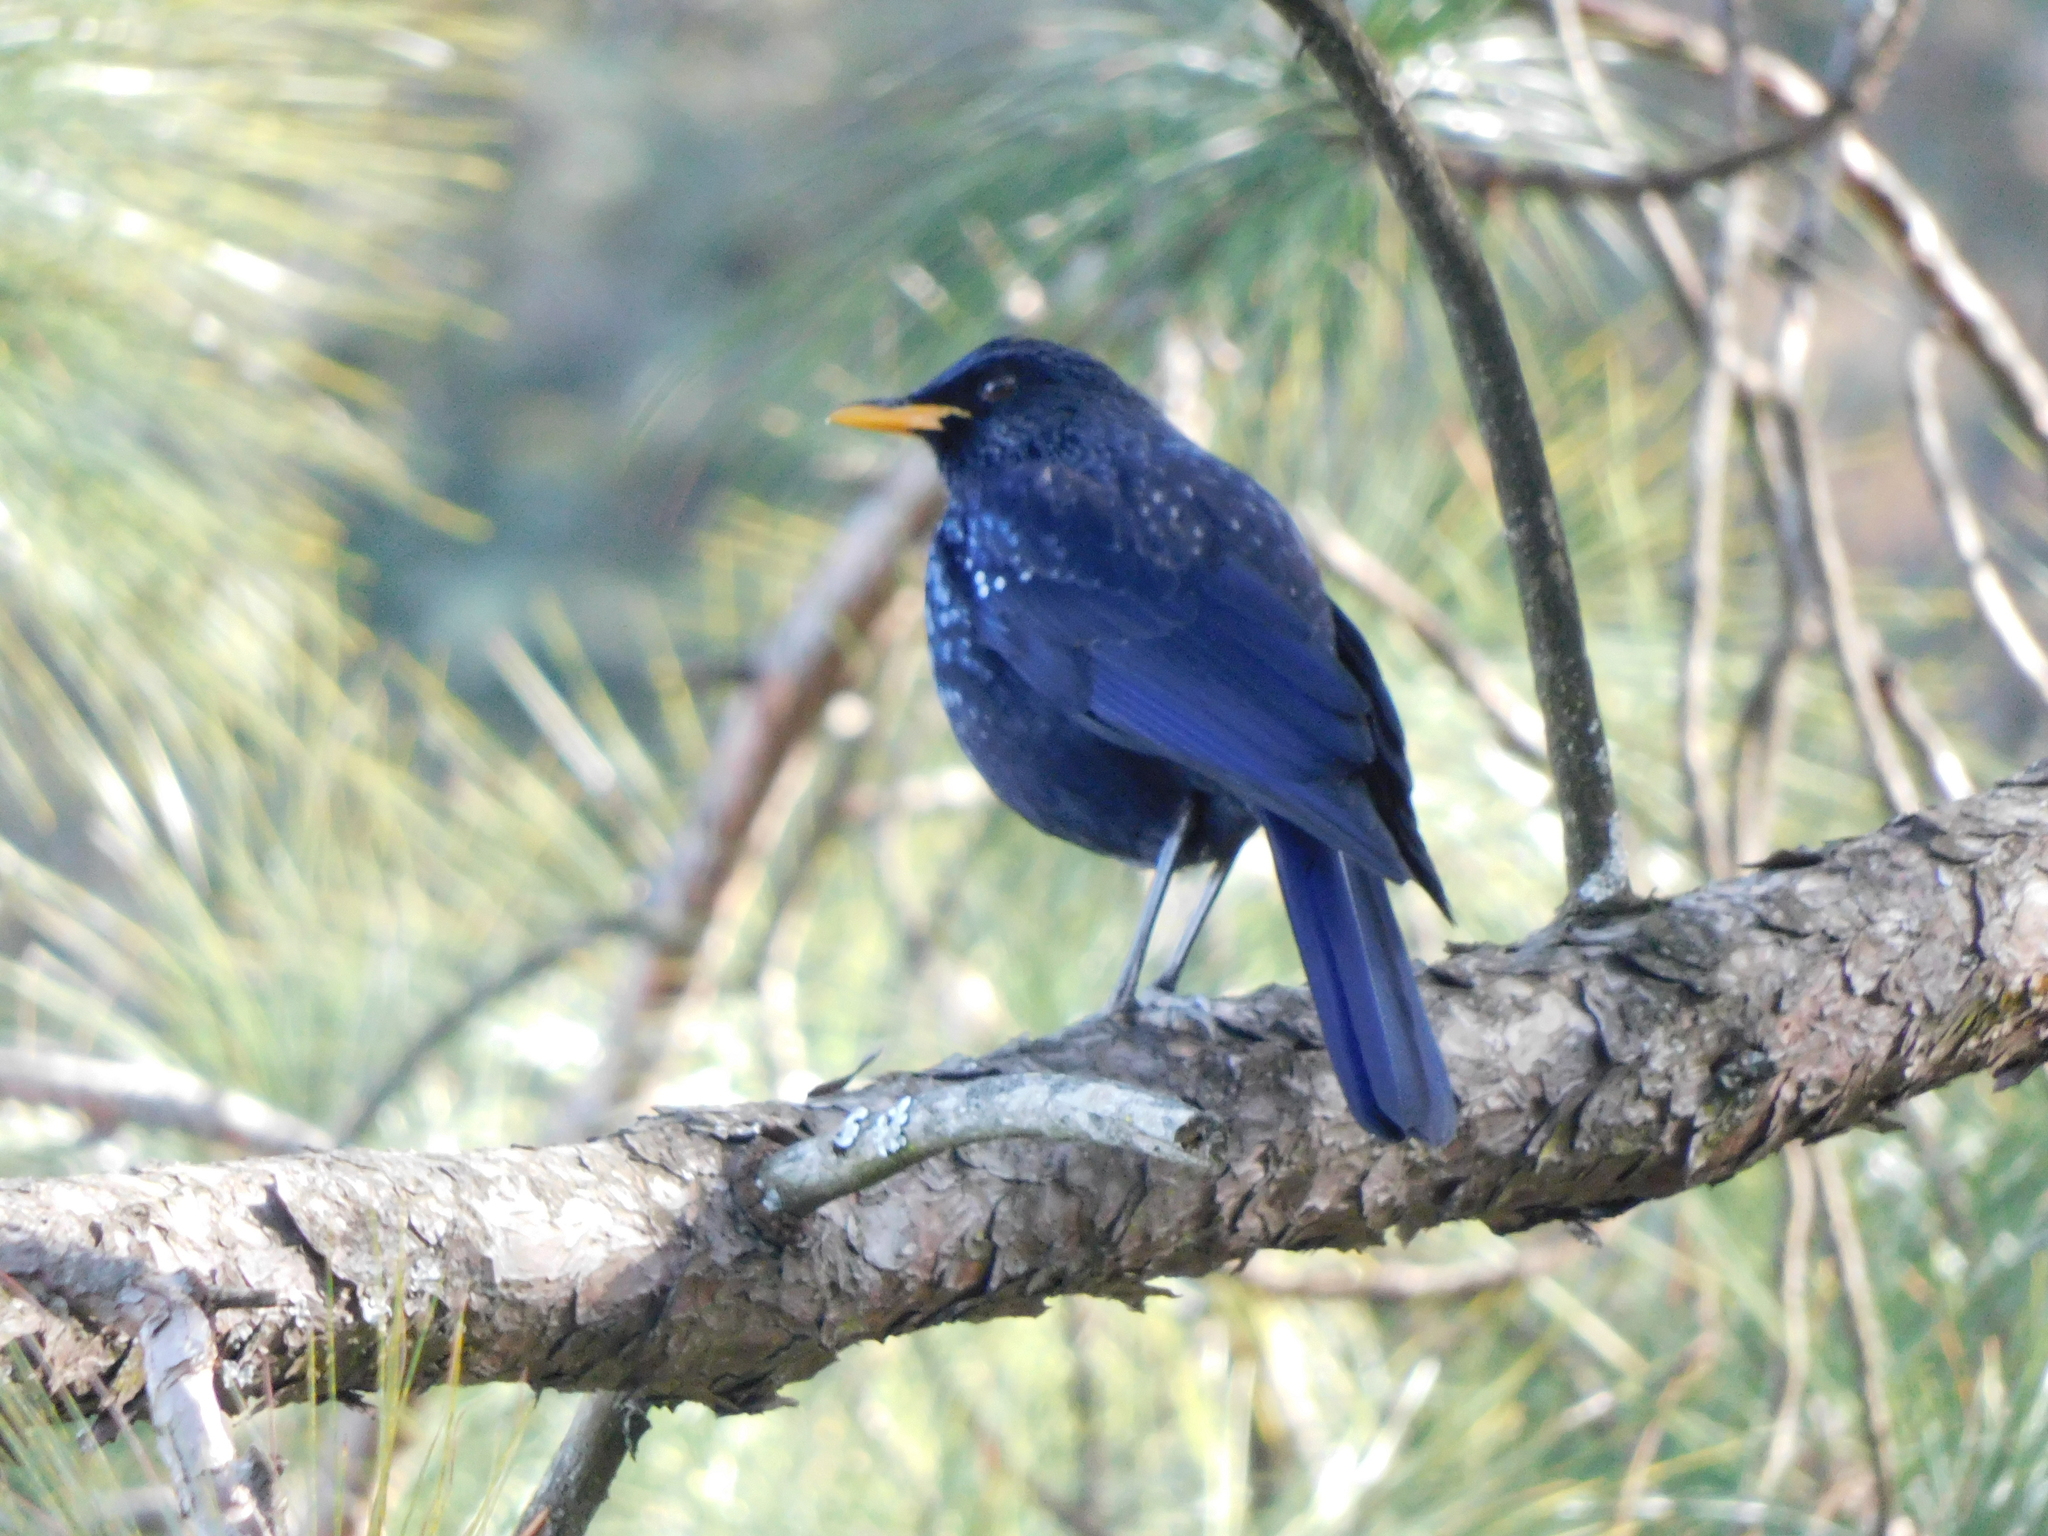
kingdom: Animalia
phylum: Chordata
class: Aves
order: Passeriformes
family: Muscicapidae
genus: Myophonus
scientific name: Myophonus caeruleus
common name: Blue whistling-thrush
